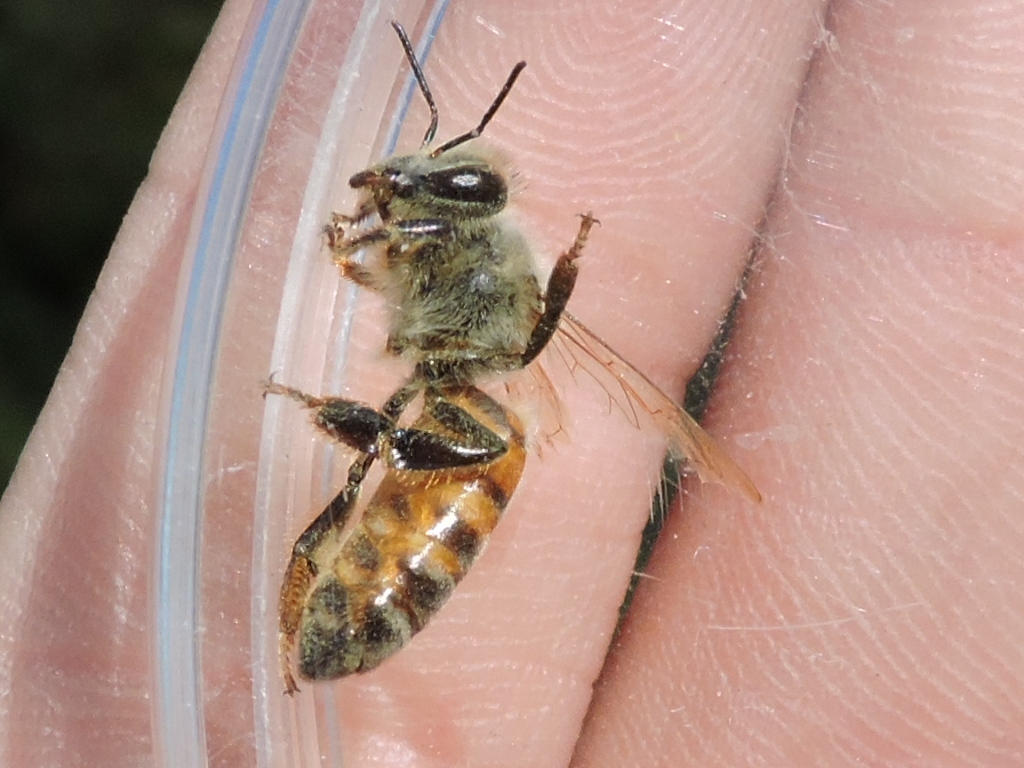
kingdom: Animalia
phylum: Arthropoda
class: Insecta
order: Hymenoptera
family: Apidae
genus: Apis
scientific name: Apis mellifera
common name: Honey bee
